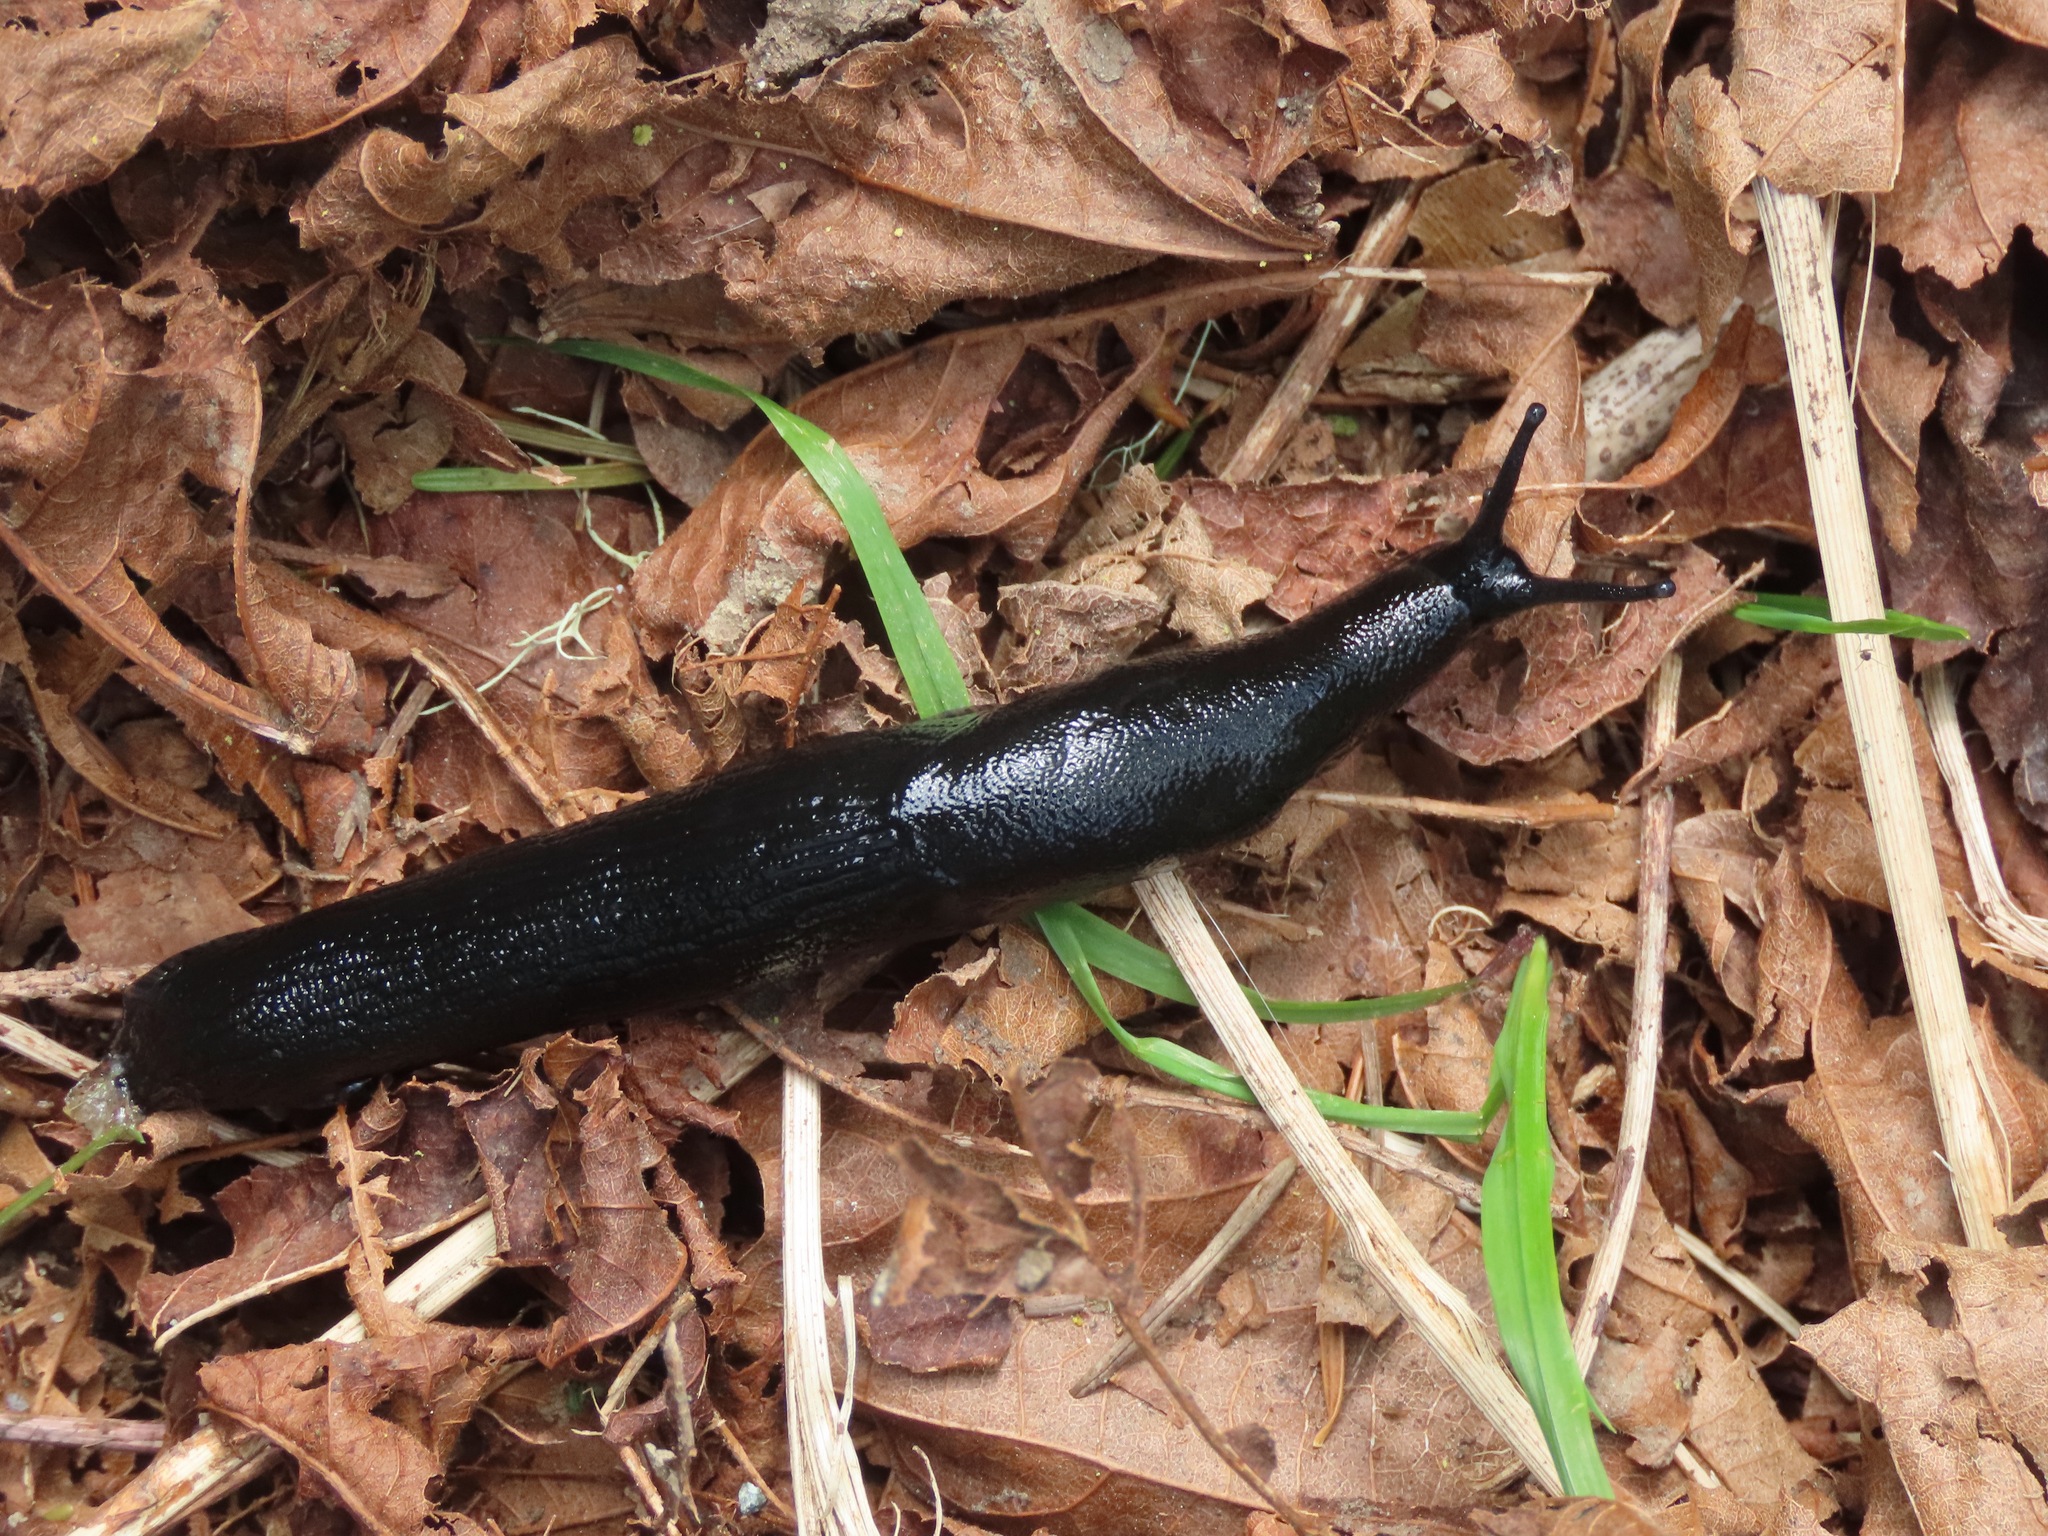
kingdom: Animalia
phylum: Mollusca
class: Gastropoda
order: Stylommatophora
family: Arionidae
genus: Arion
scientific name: Arion
